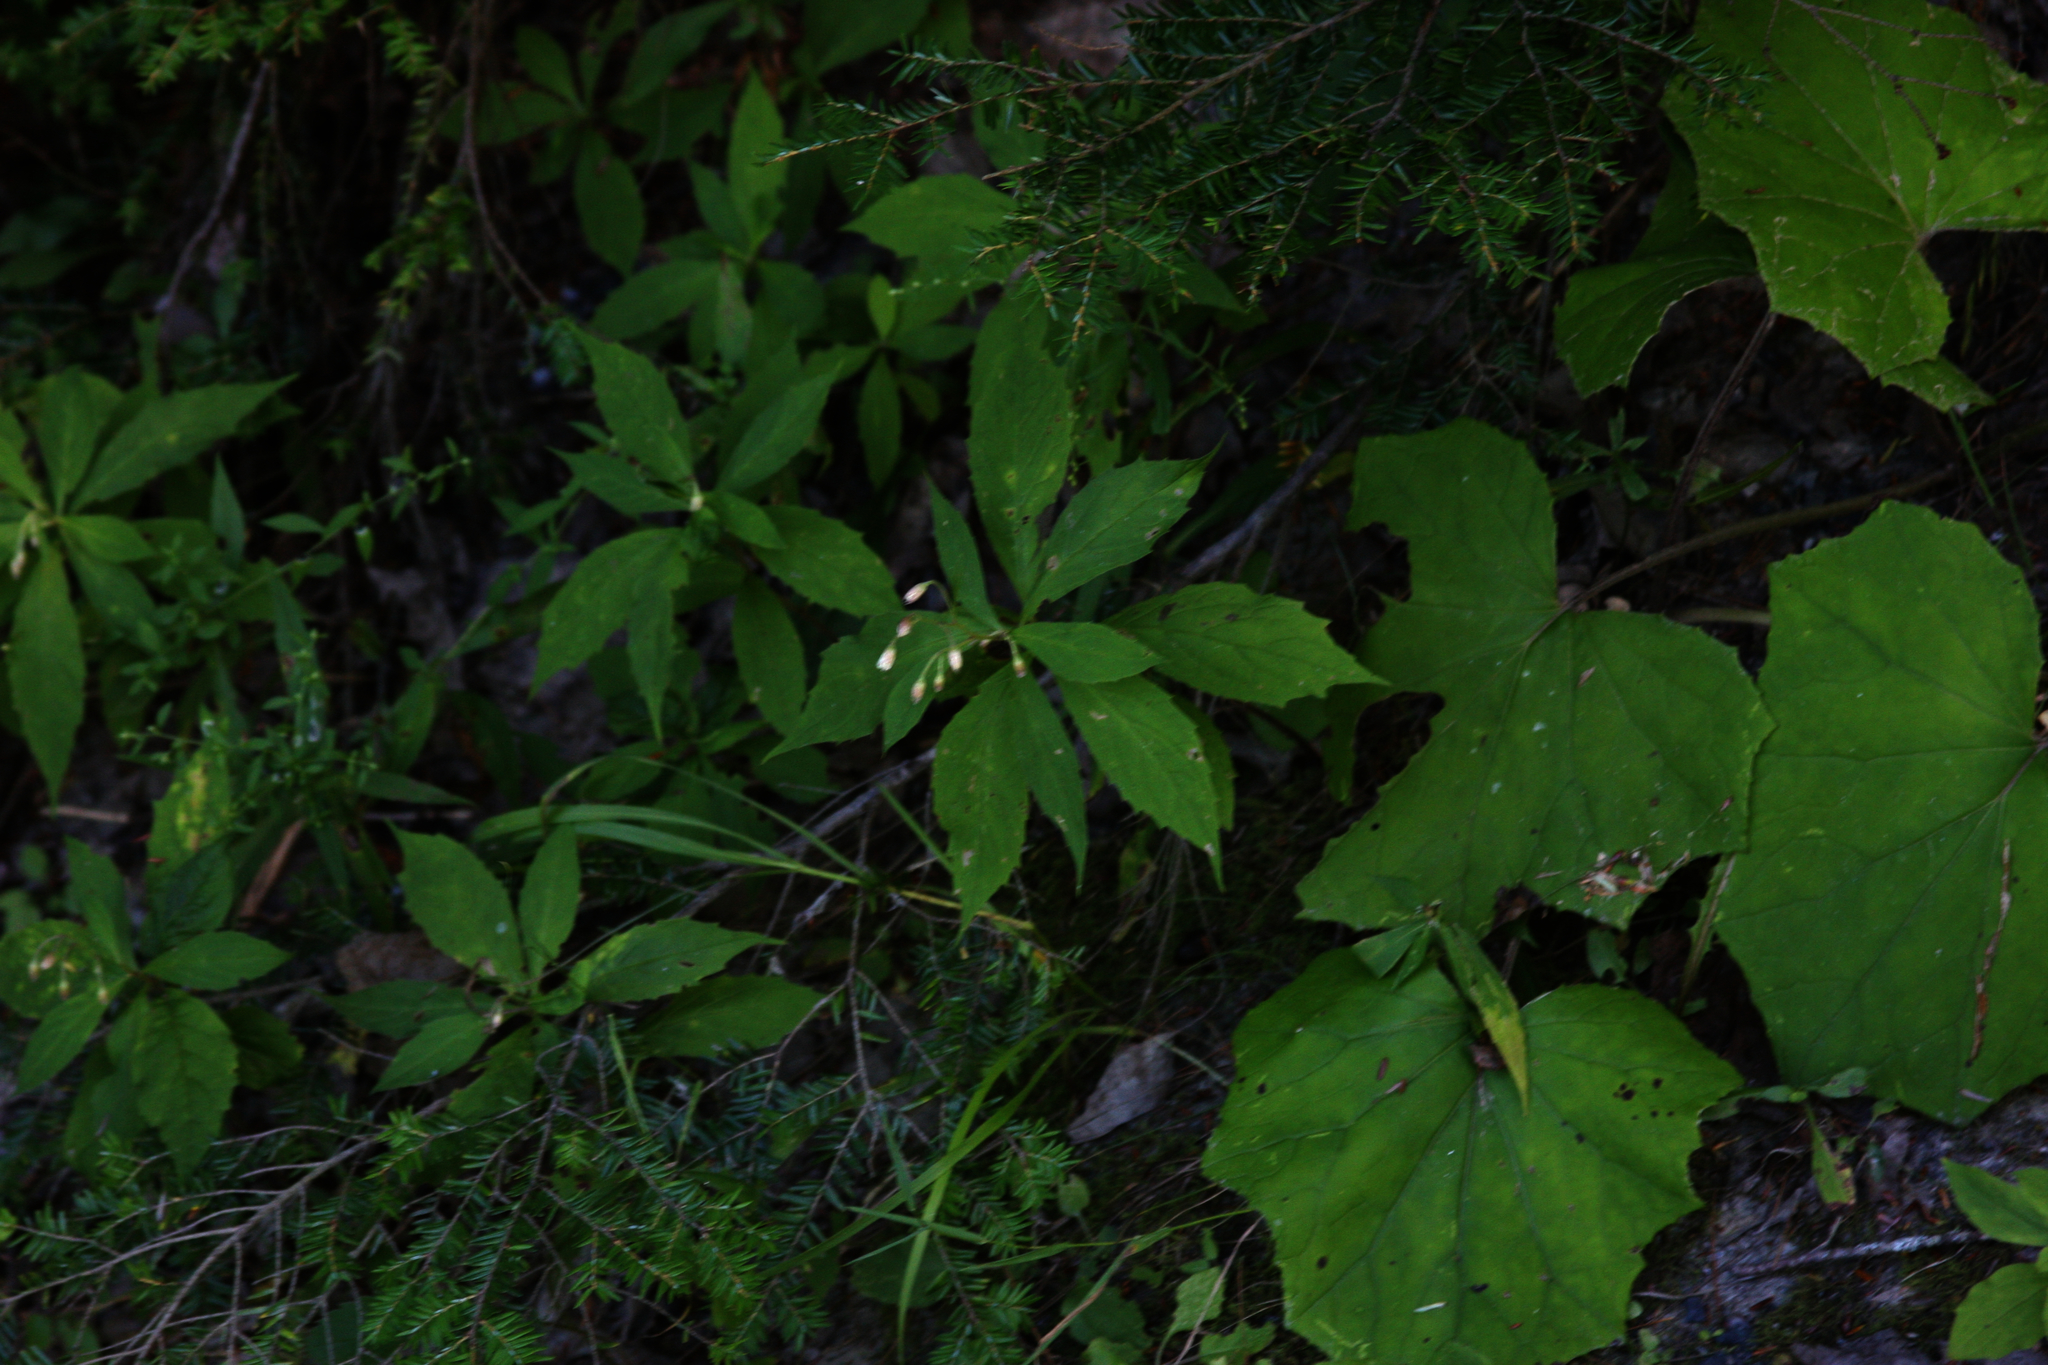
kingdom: Plantae
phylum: Tracheophyta
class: Pinopsida
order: Pinales
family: Pinaceae
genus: Tsuga
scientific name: Tsuga canadensis
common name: Eastern hemlock
